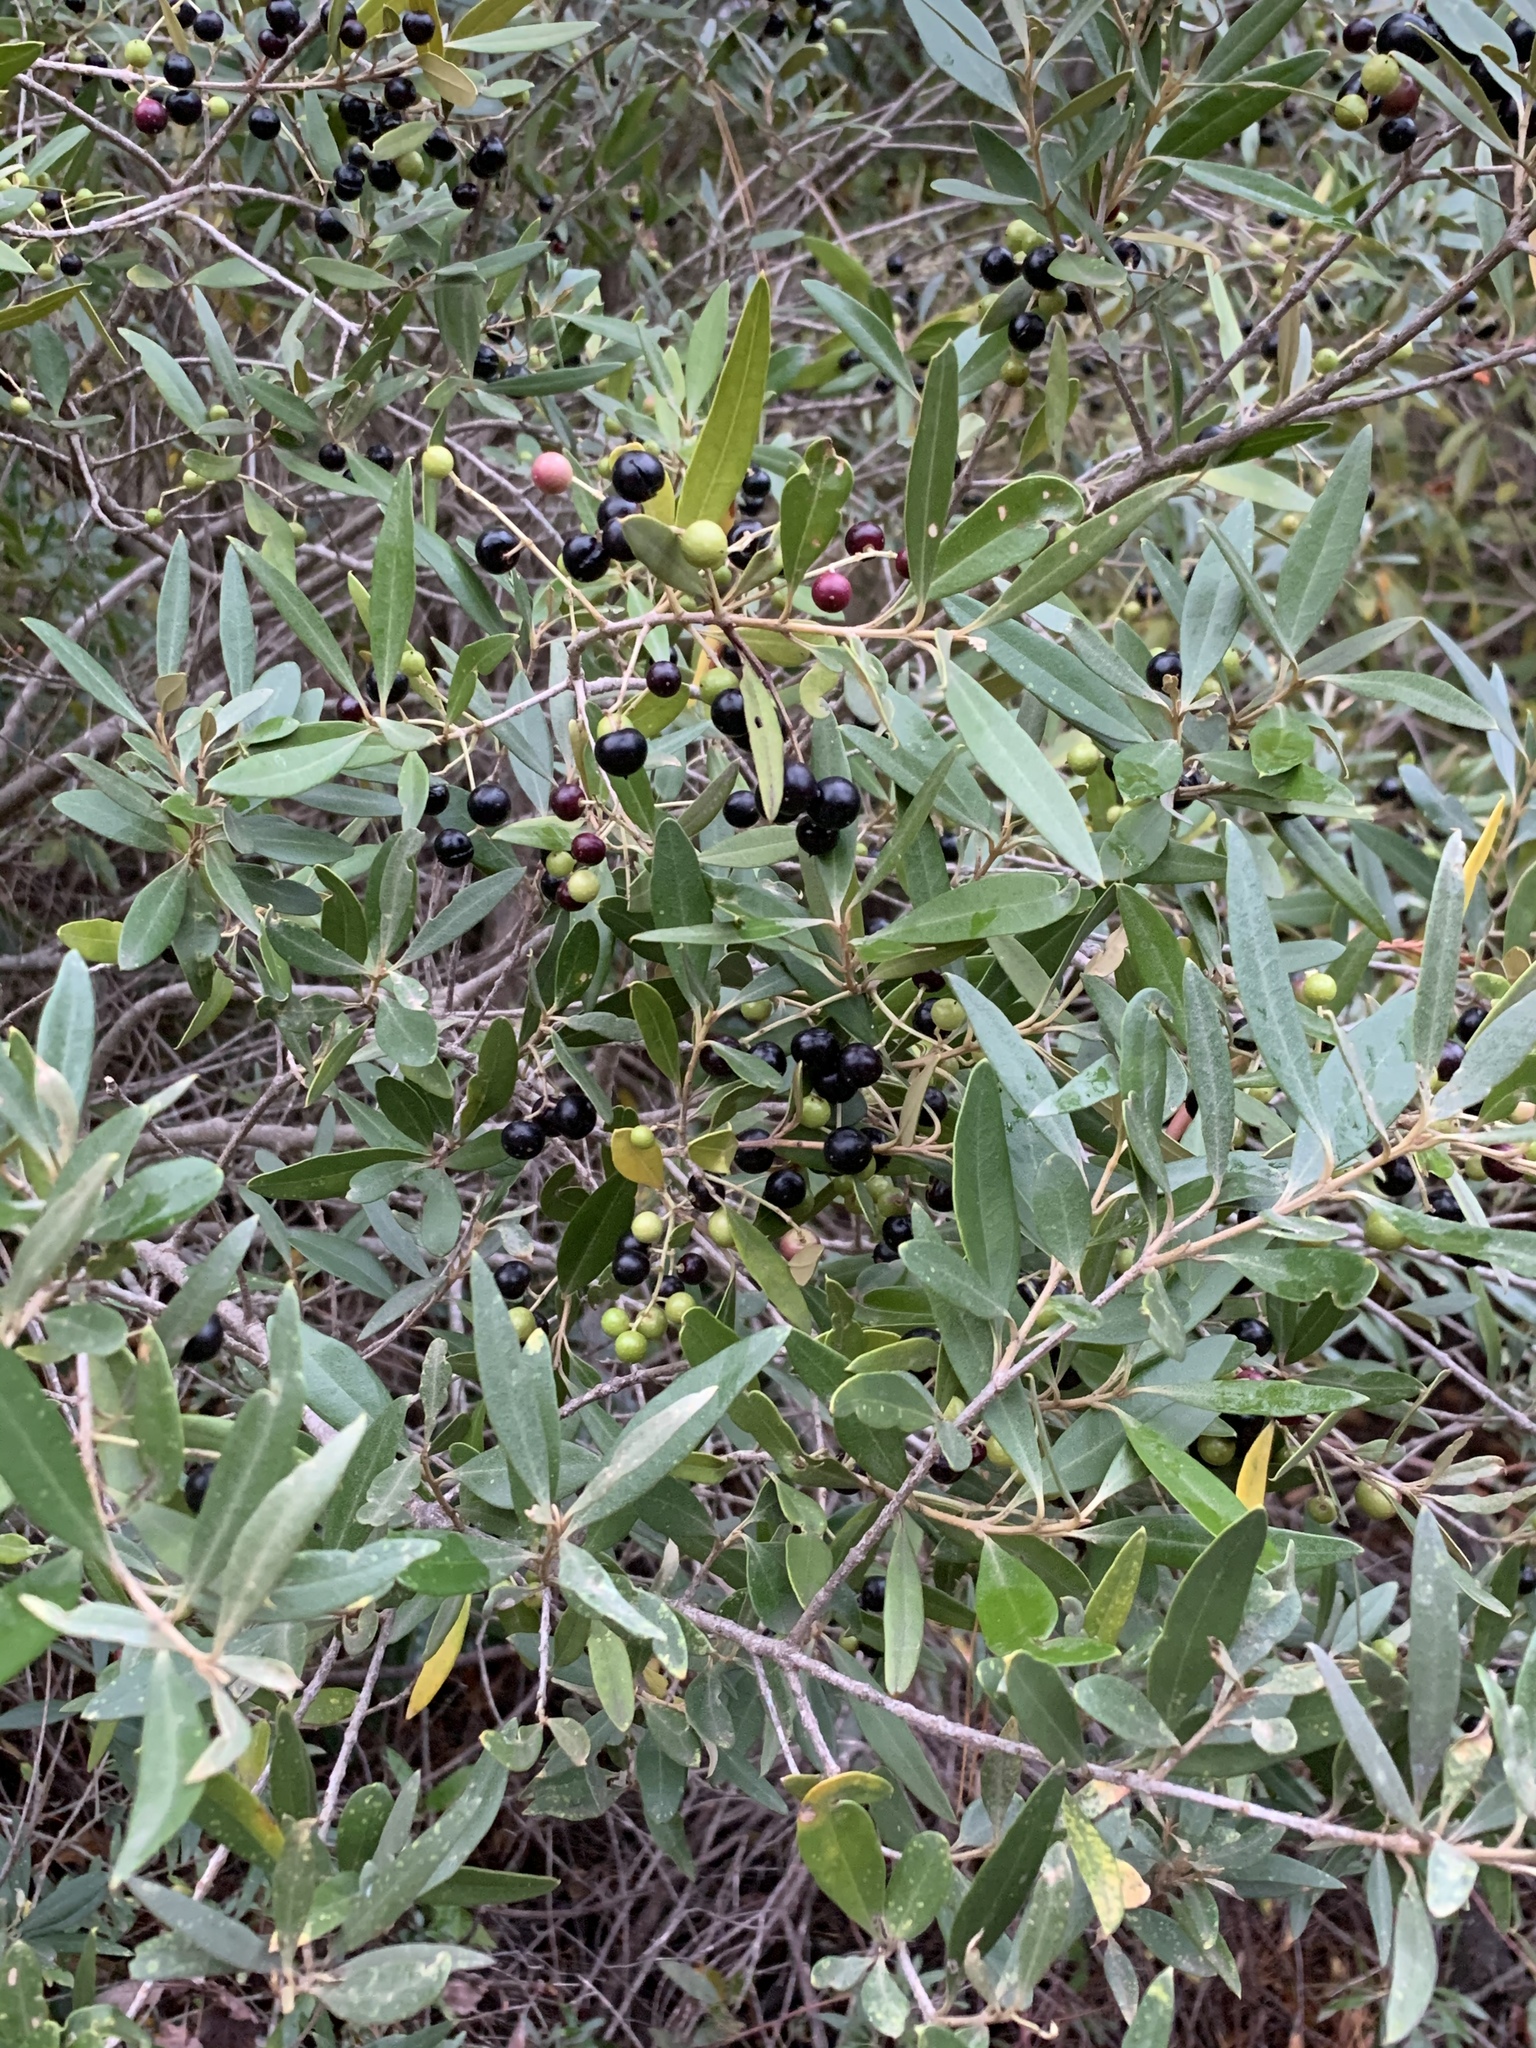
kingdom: Plantae
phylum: Tracheophyta
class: Magnoliopsida
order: Lamiales
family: Oleaceae
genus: Olea
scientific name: Olea europaea
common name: Olive
